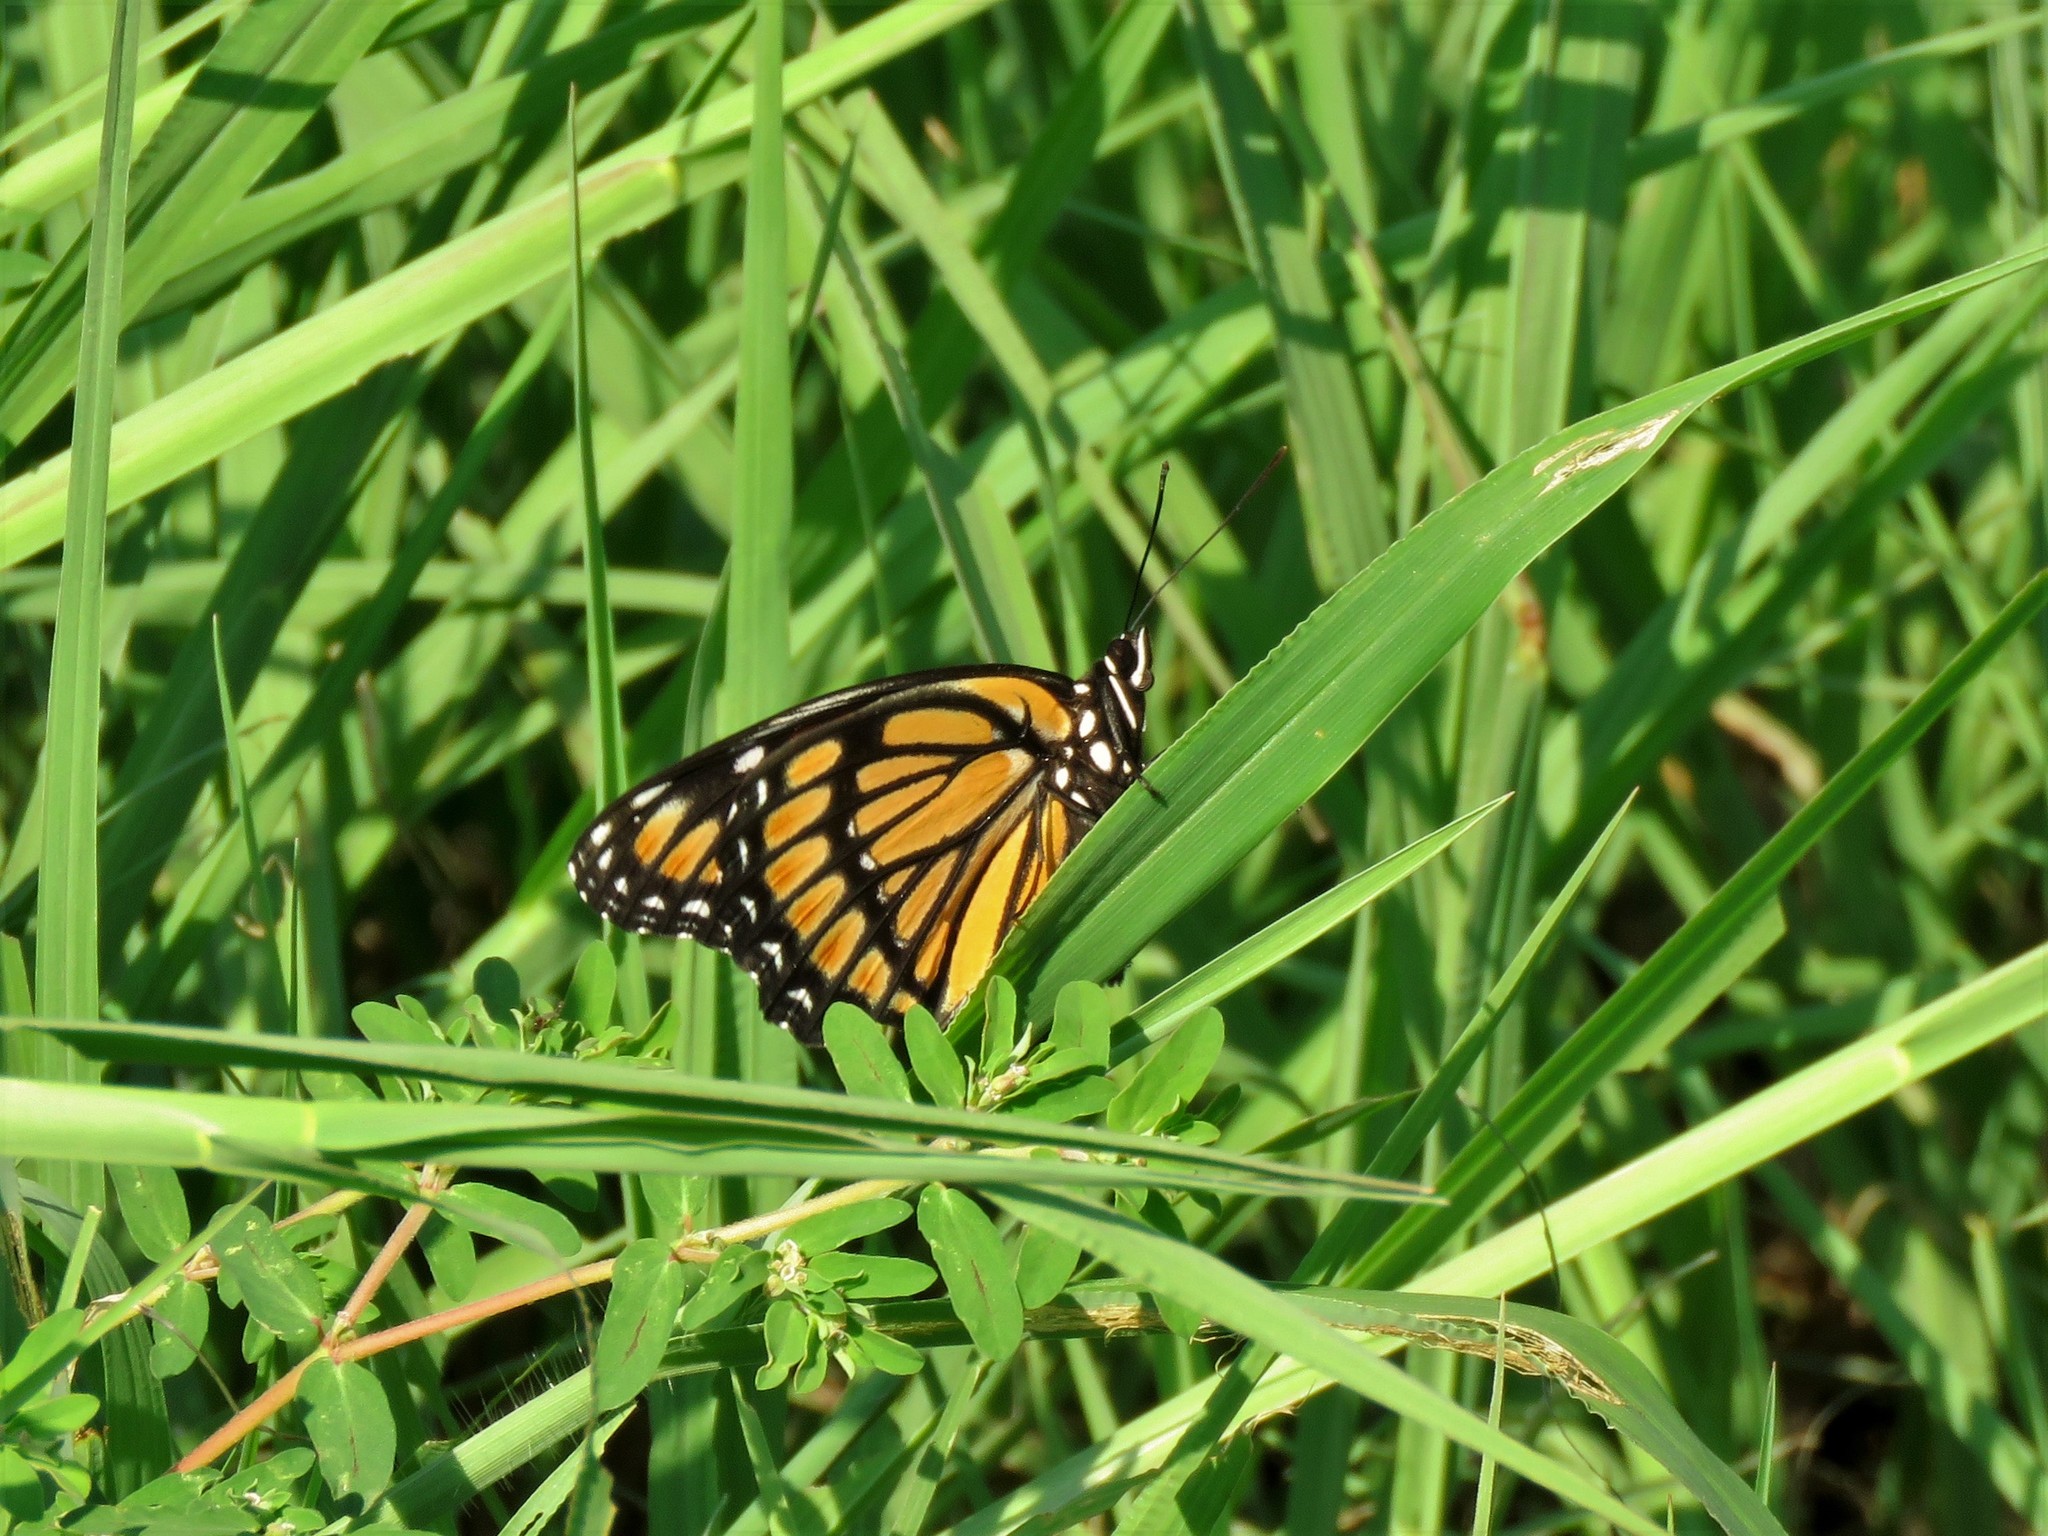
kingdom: Animalia
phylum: Arthropoda
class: Insecta
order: Lepidoptera
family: Nymphalidae
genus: Limenitis
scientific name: Limenitis archippus
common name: Viceroy
